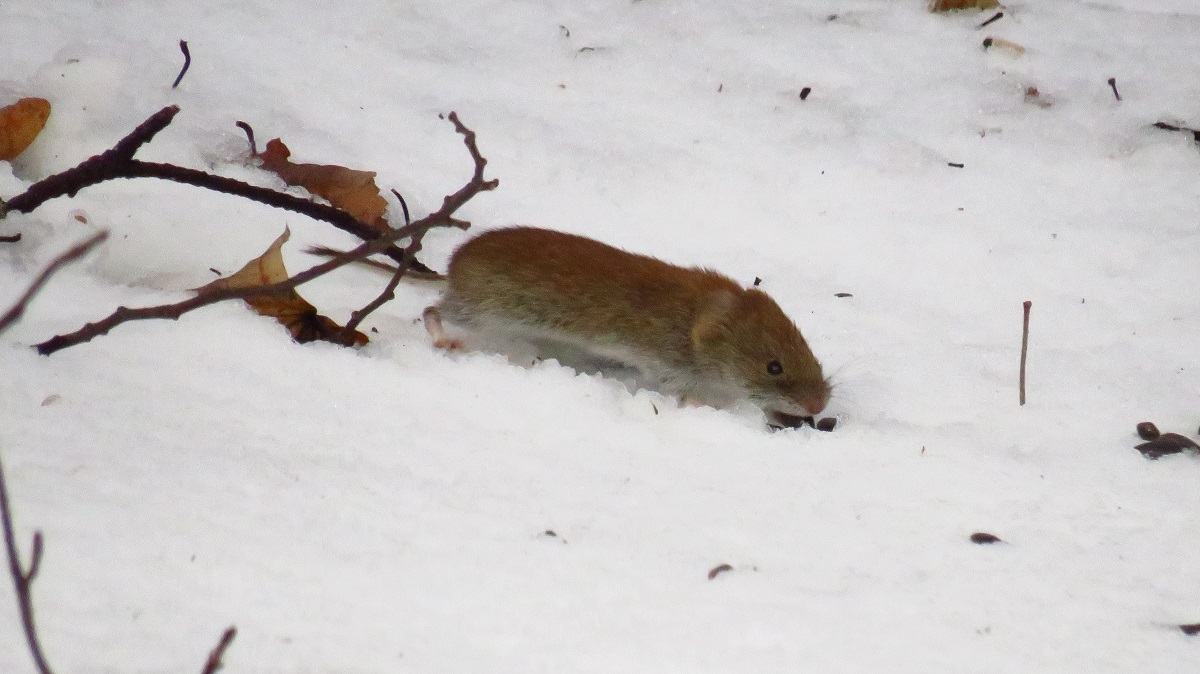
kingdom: Animalia
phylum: Chordata
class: Mammalia
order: Rodentia
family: Cricetidae
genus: Myodes
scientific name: Myodes glareolus
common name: Bank vole
